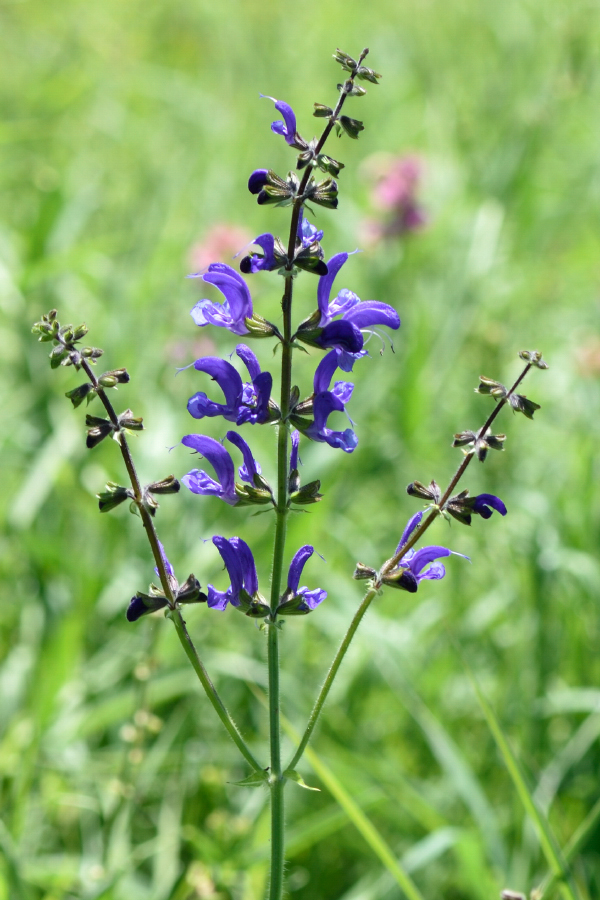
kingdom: Plantae
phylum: Tracheophyta
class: Magnoliopsida
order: Lamiales
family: Lamiaceae
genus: Salvia
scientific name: Salvia pratensis
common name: Meadow sage
